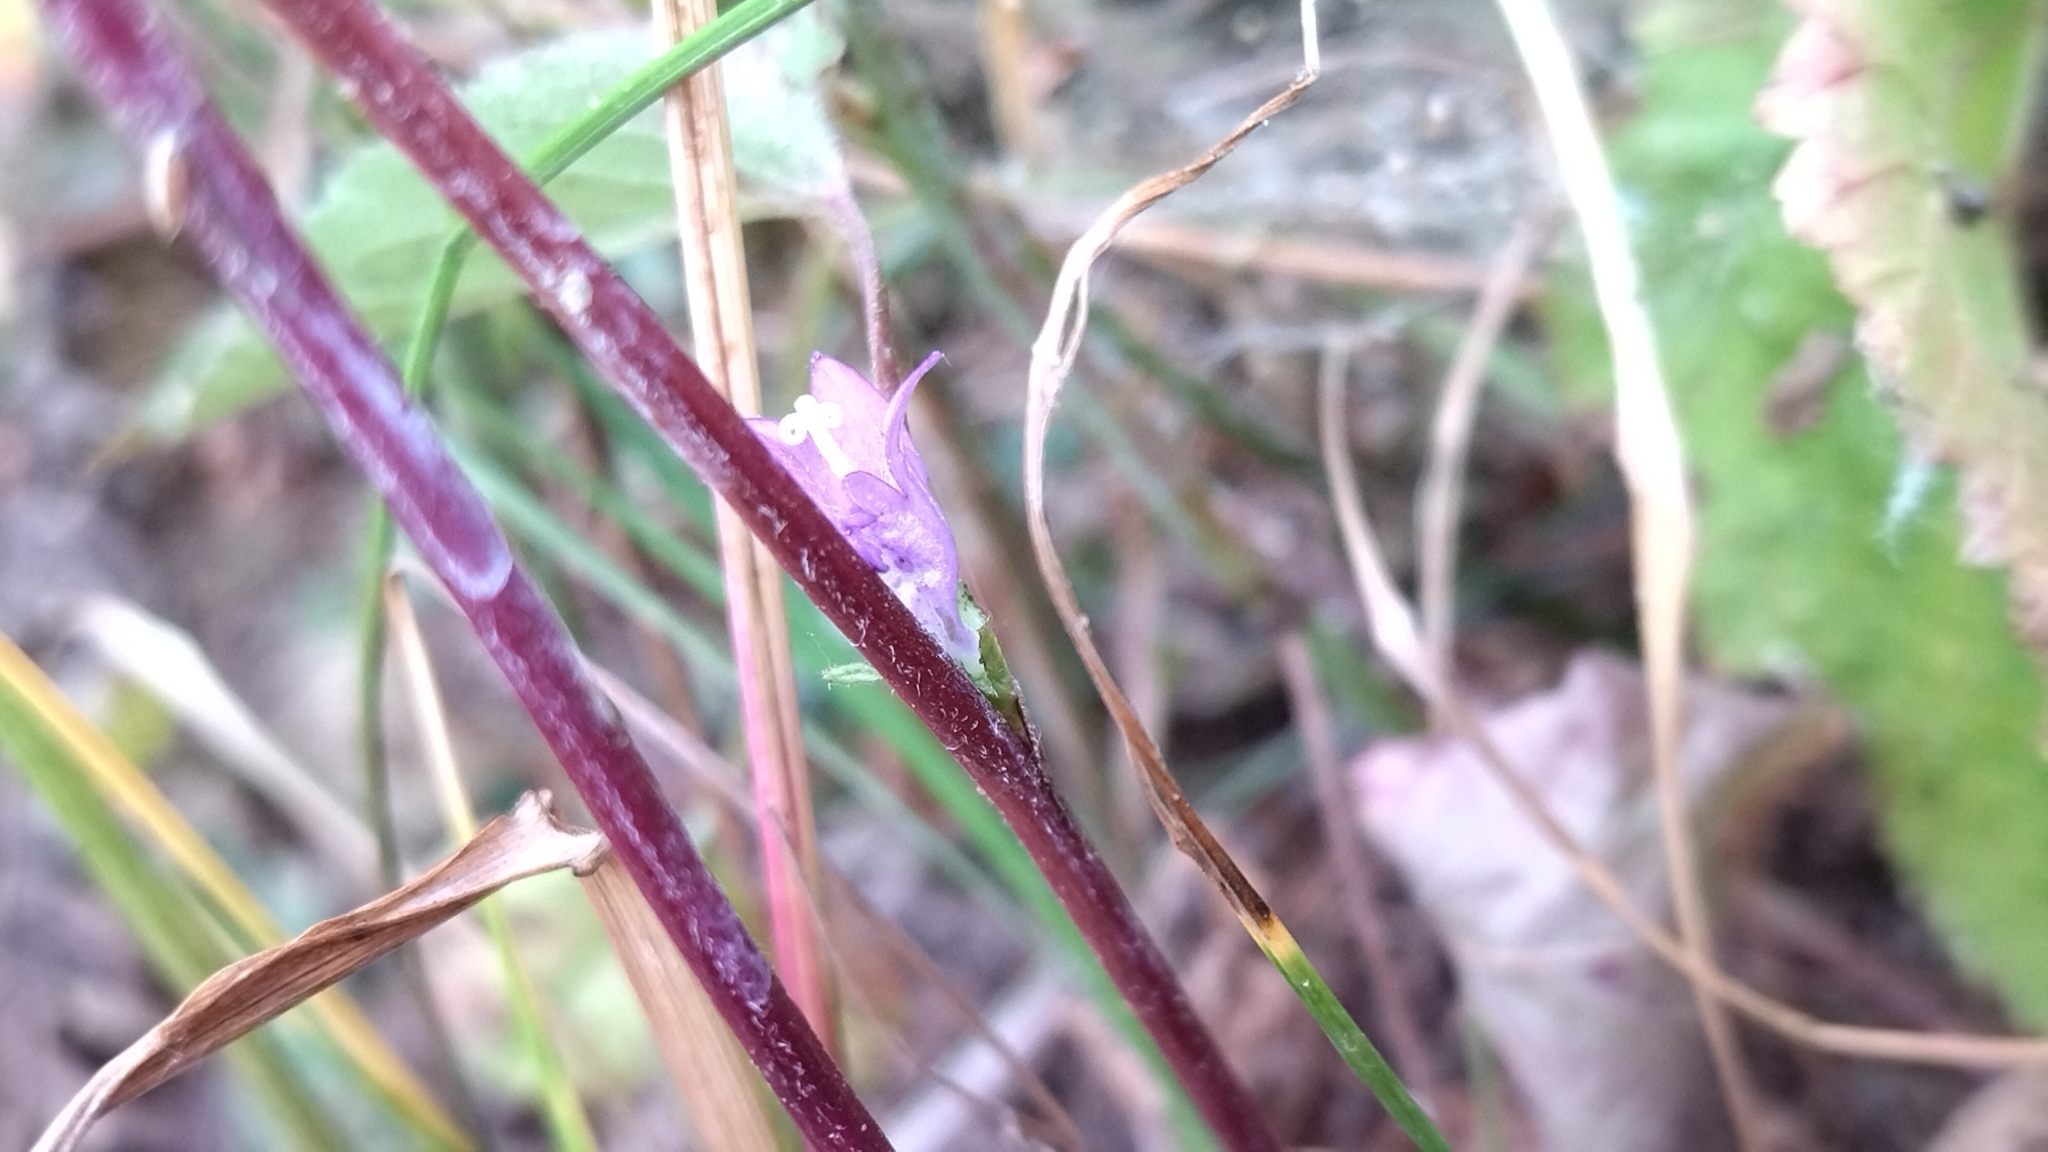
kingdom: Plantae
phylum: Tracheophyta
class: Magnoliopsida
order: Asterales
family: Campanulaceae
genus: Campanula
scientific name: Campanula glomerata
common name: Clustered bellflower
